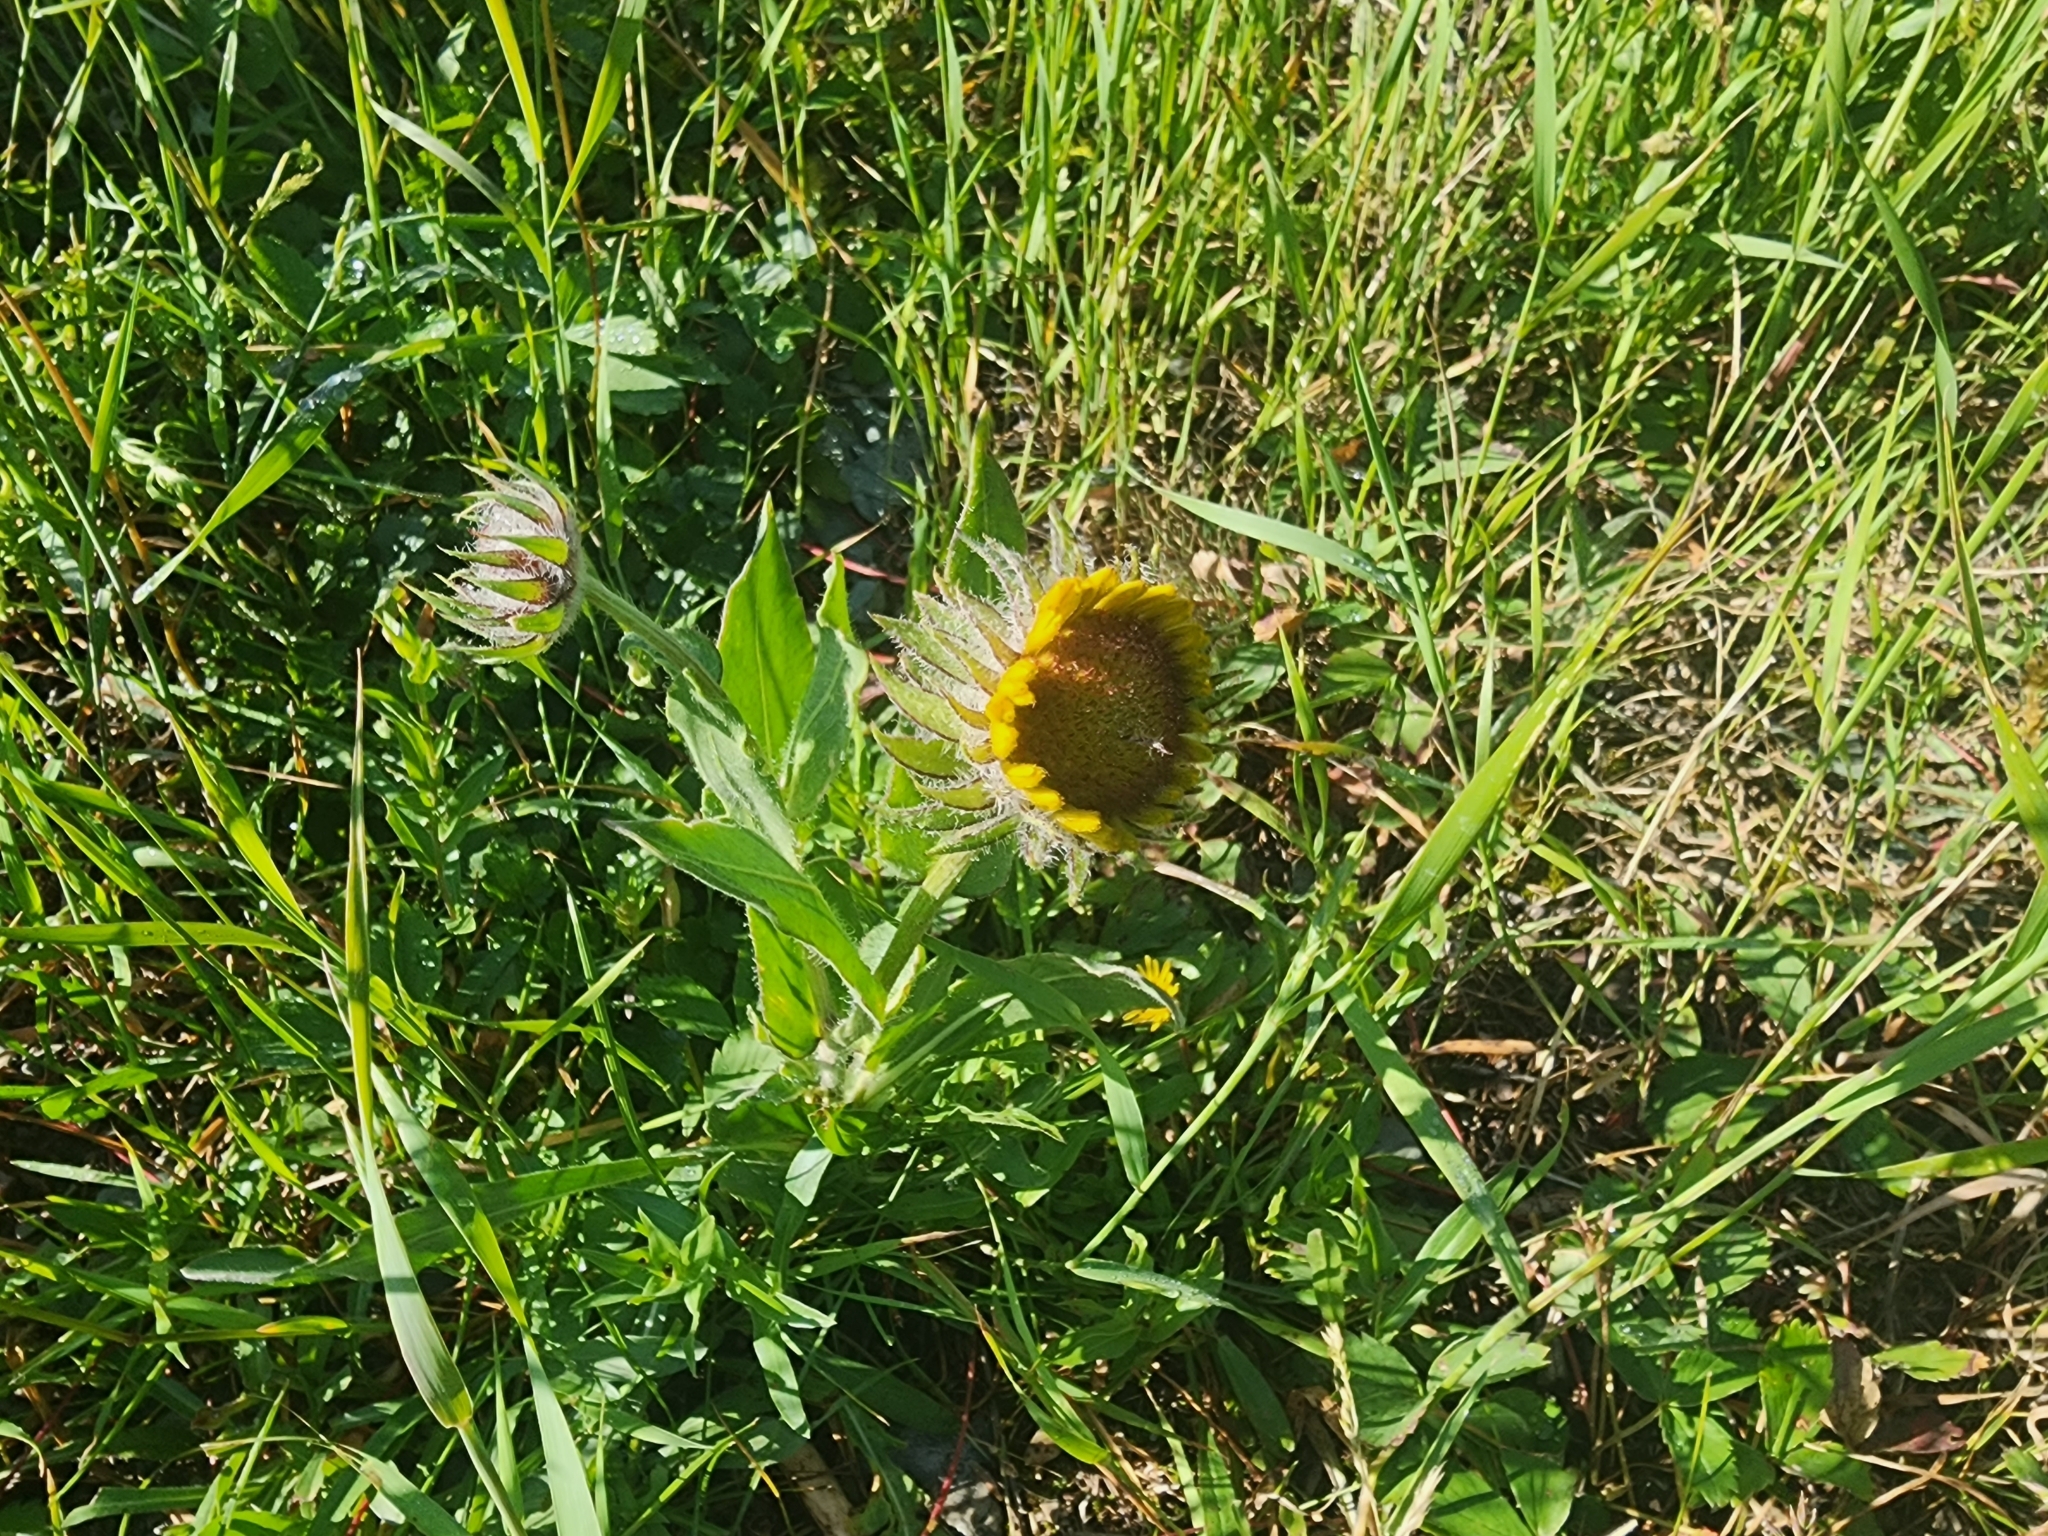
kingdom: Plantae
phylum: Tracheophyta
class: Magnoliopsida
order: Asterales
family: Asteraceae
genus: Helianthus
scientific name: Helianthus annuus
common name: Sunflower
